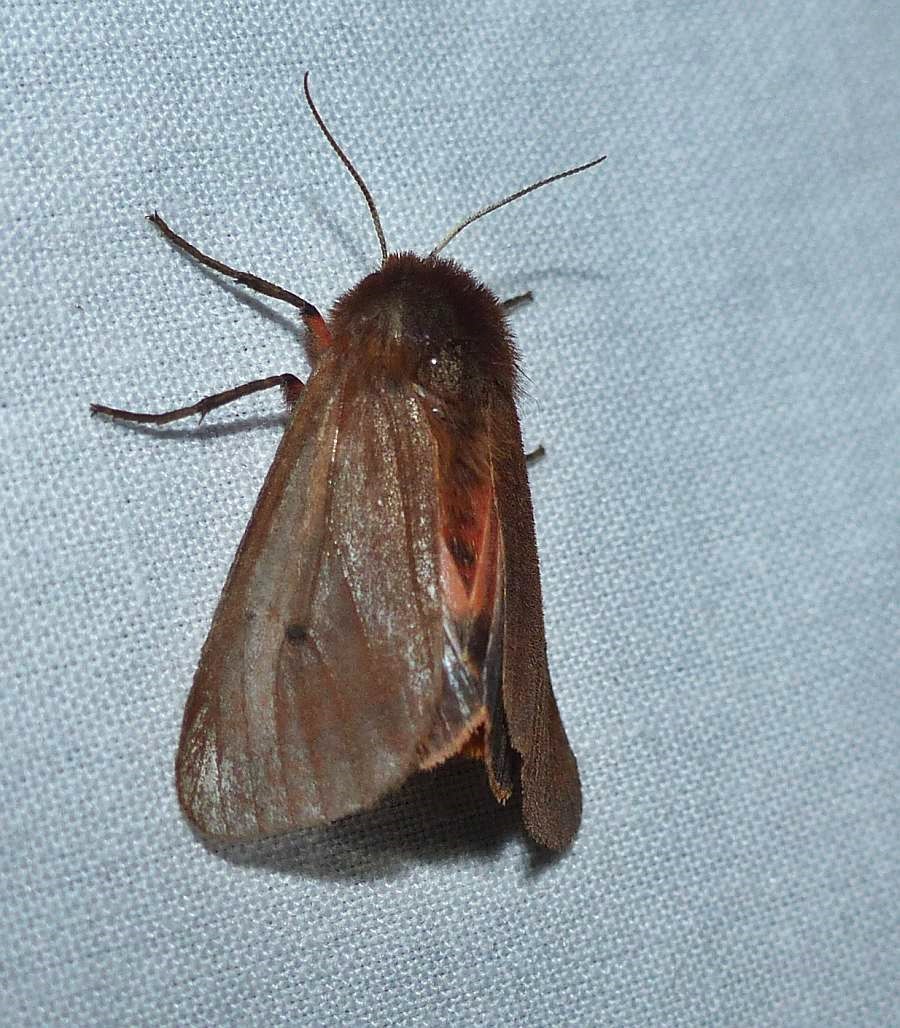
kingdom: Animalia
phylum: Arthropoda
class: Insecta
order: Lepidoptera
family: Erebidae
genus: Phragmatobia
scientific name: Phragmatobia fuliginosa
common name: Ruby tiger
